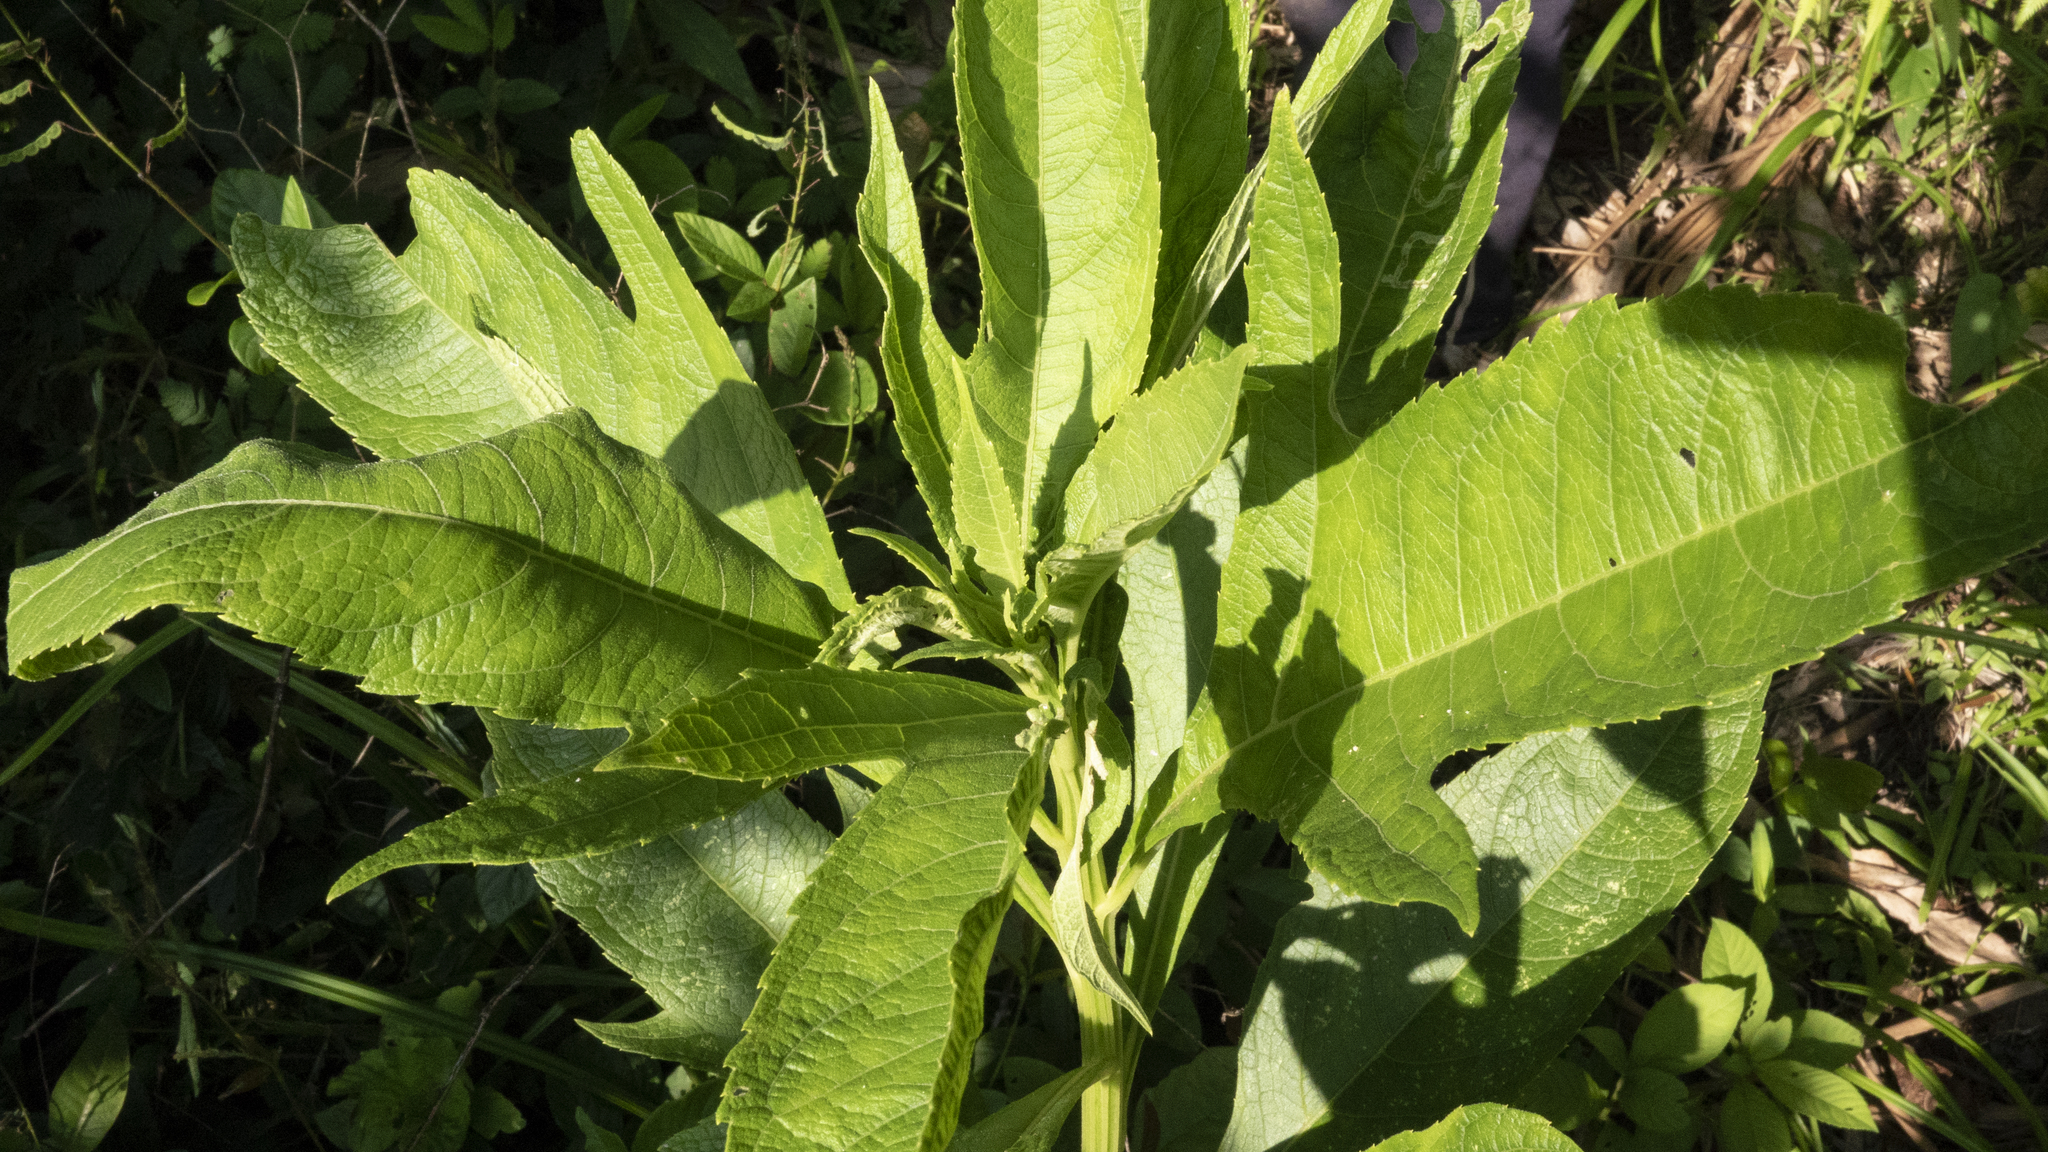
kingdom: Plantae
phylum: Tracheophyta
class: Magnoliopsida
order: Asterales
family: Asteraceae
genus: Neurolaena
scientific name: Neurolaena lobata
